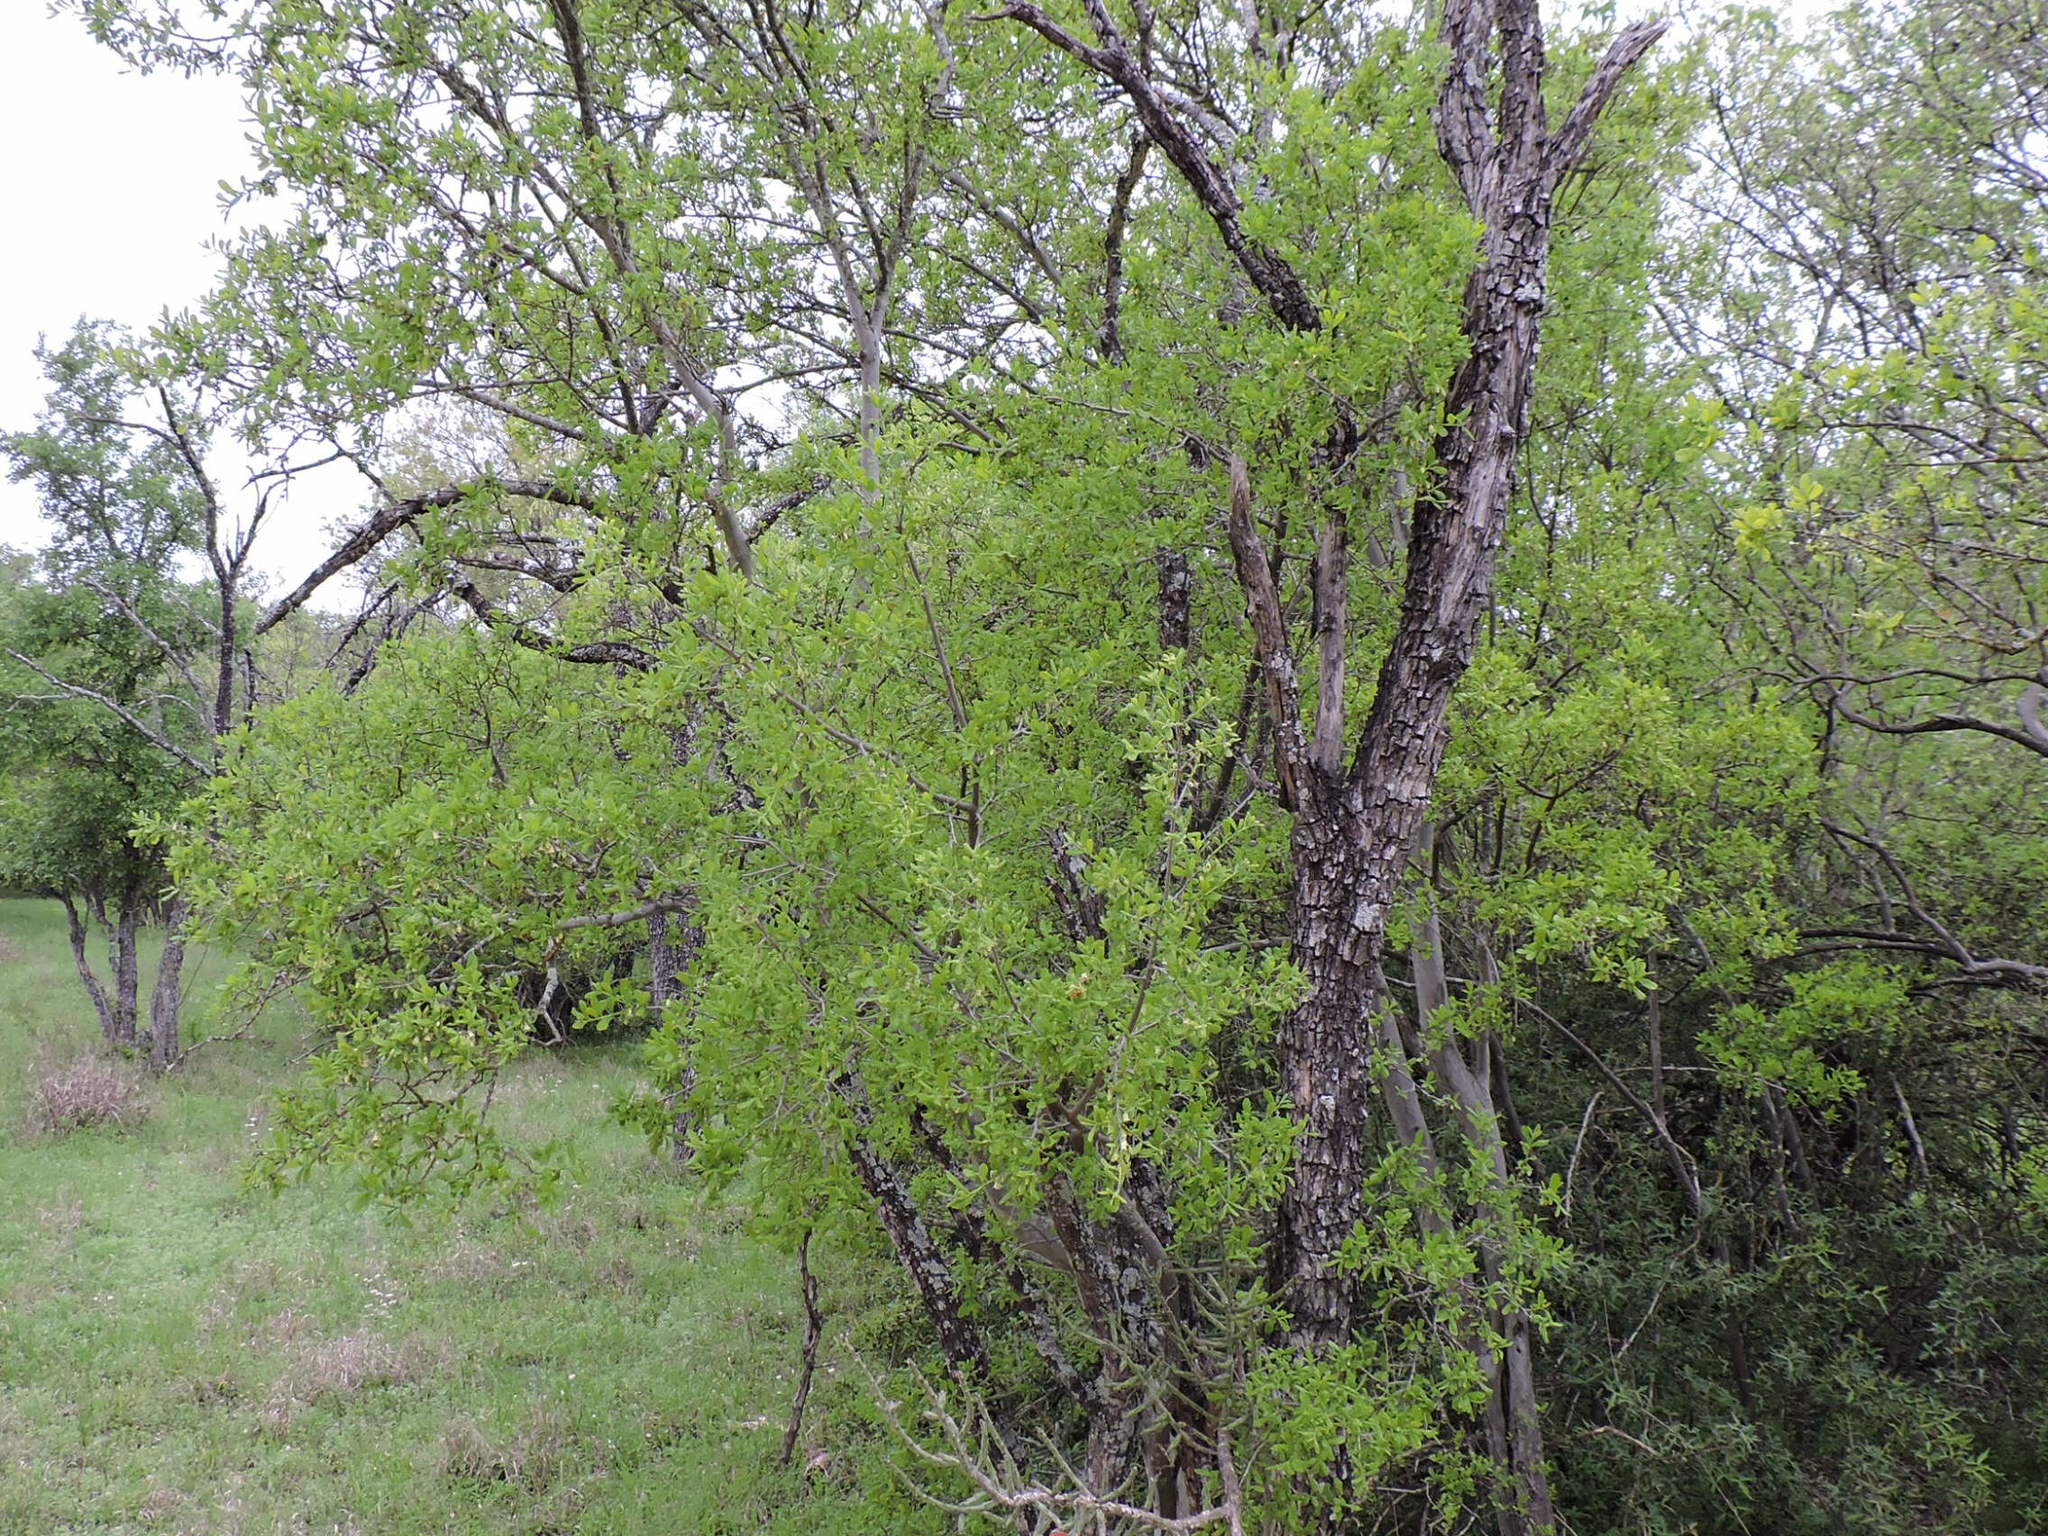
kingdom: Plantae
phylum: Tracheophyta
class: Magnoliopsida
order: Ericales
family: Ebenaceae
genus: Diospyros
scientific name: Diospyros texana
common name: Texas persimmon
